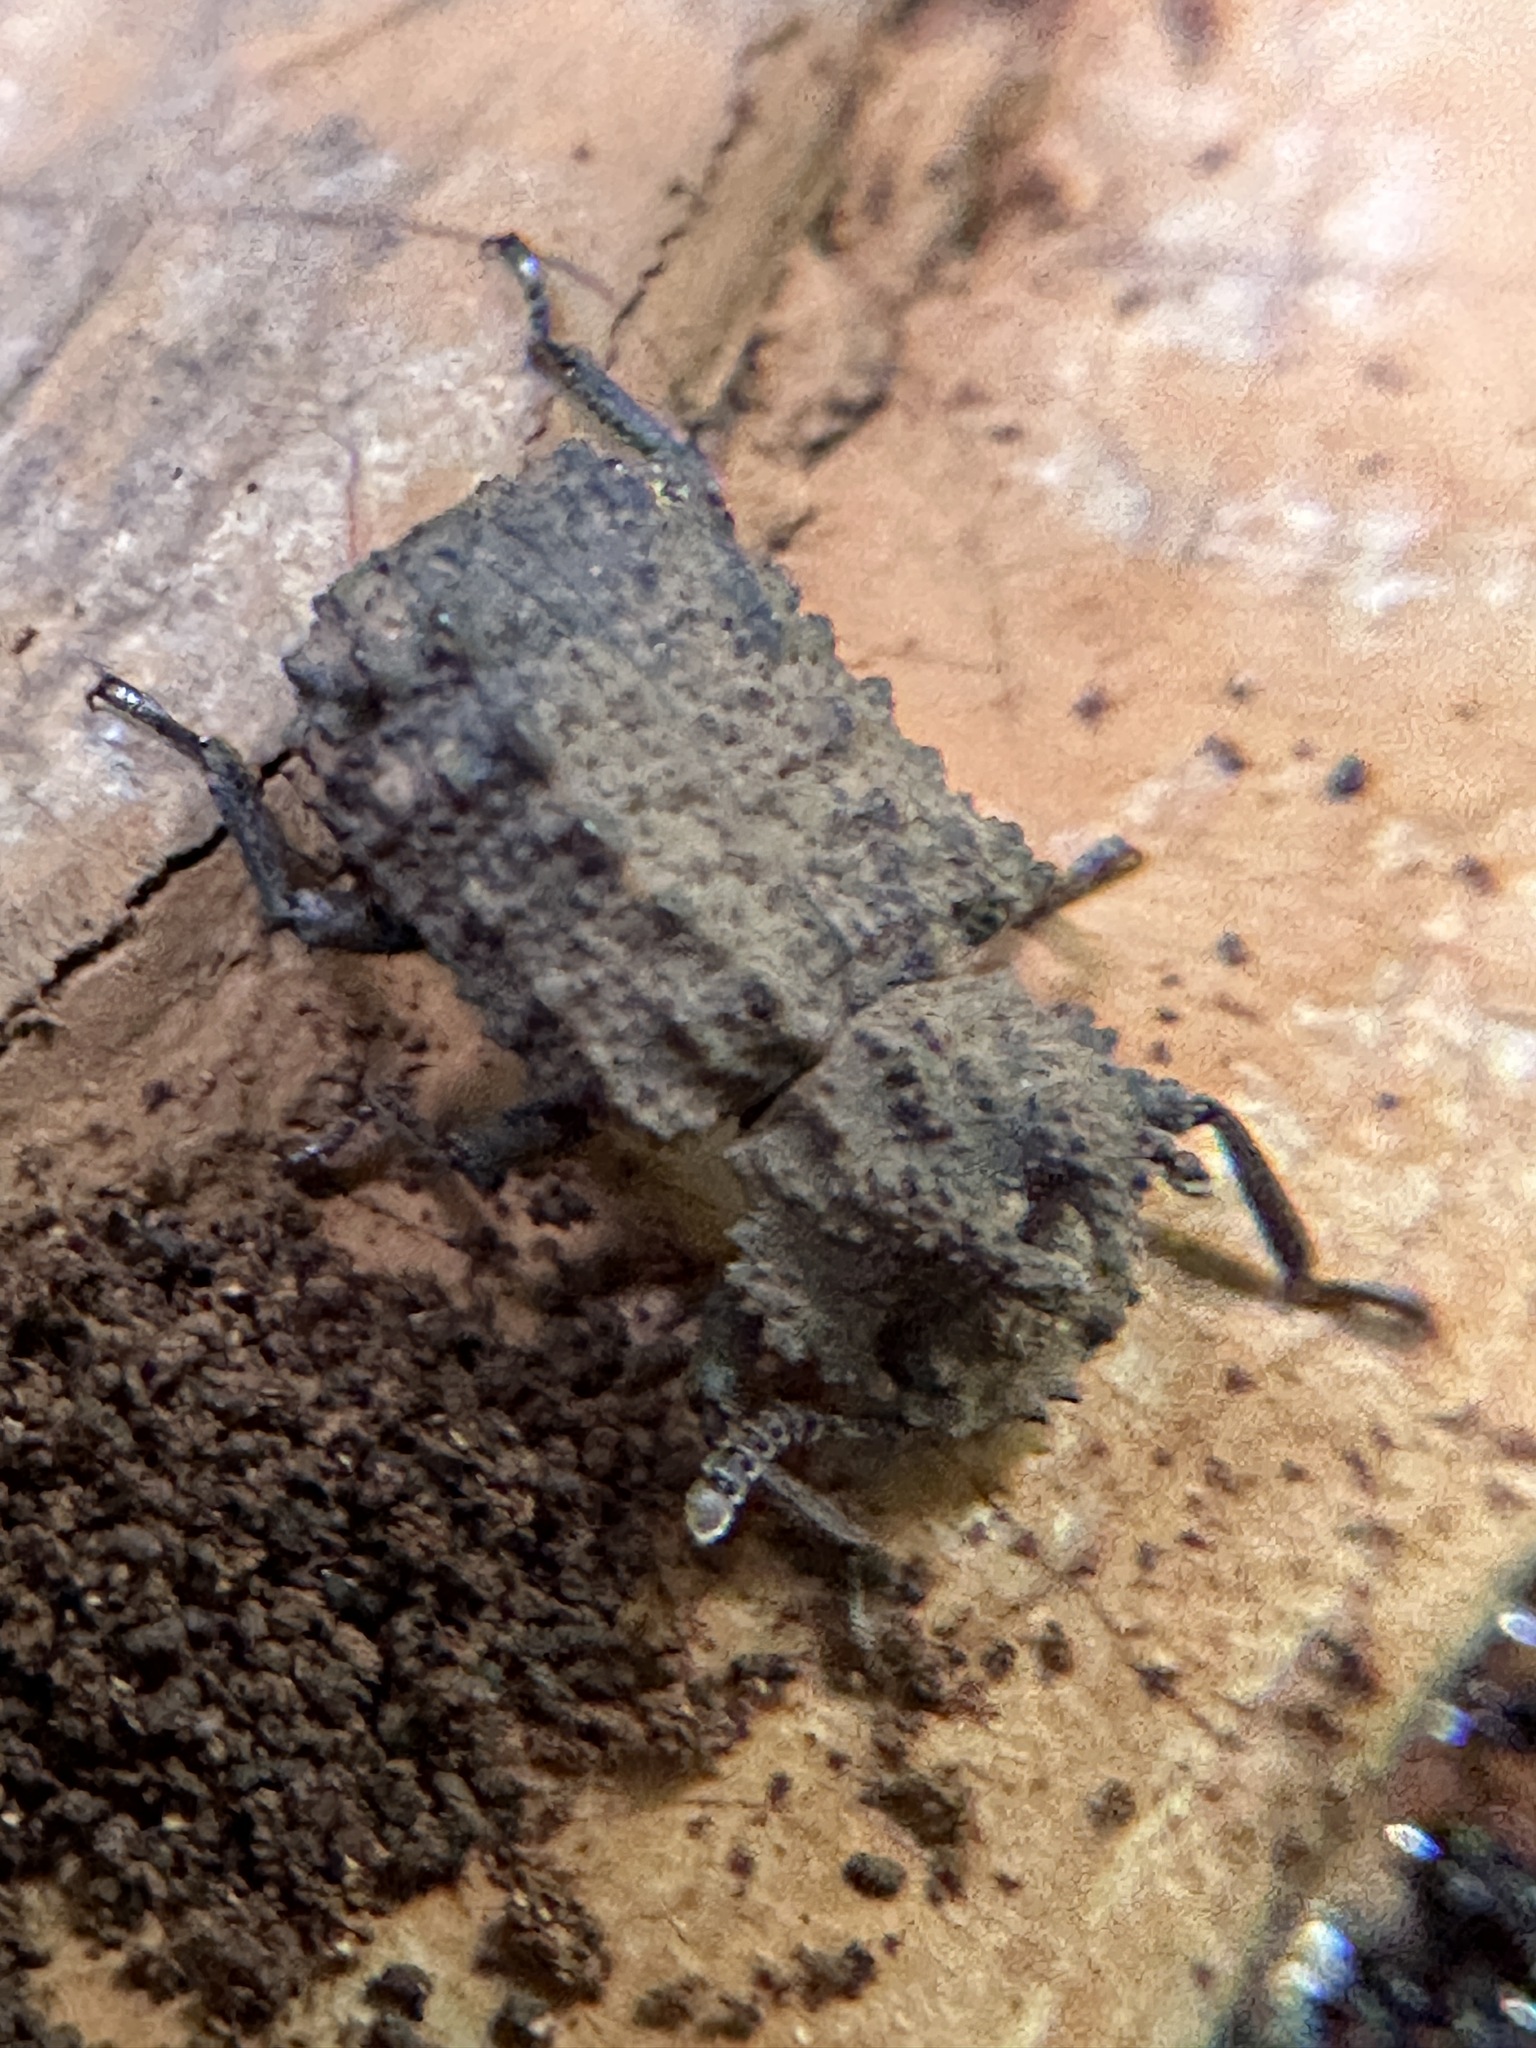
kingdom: Animalia
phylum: Arthropoda
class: Insecta
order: Coleoptera
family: Tenebrionidae
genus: Gnatocerus
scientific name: Gnatocerus cornutus
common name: Broad-horned flour beetle
